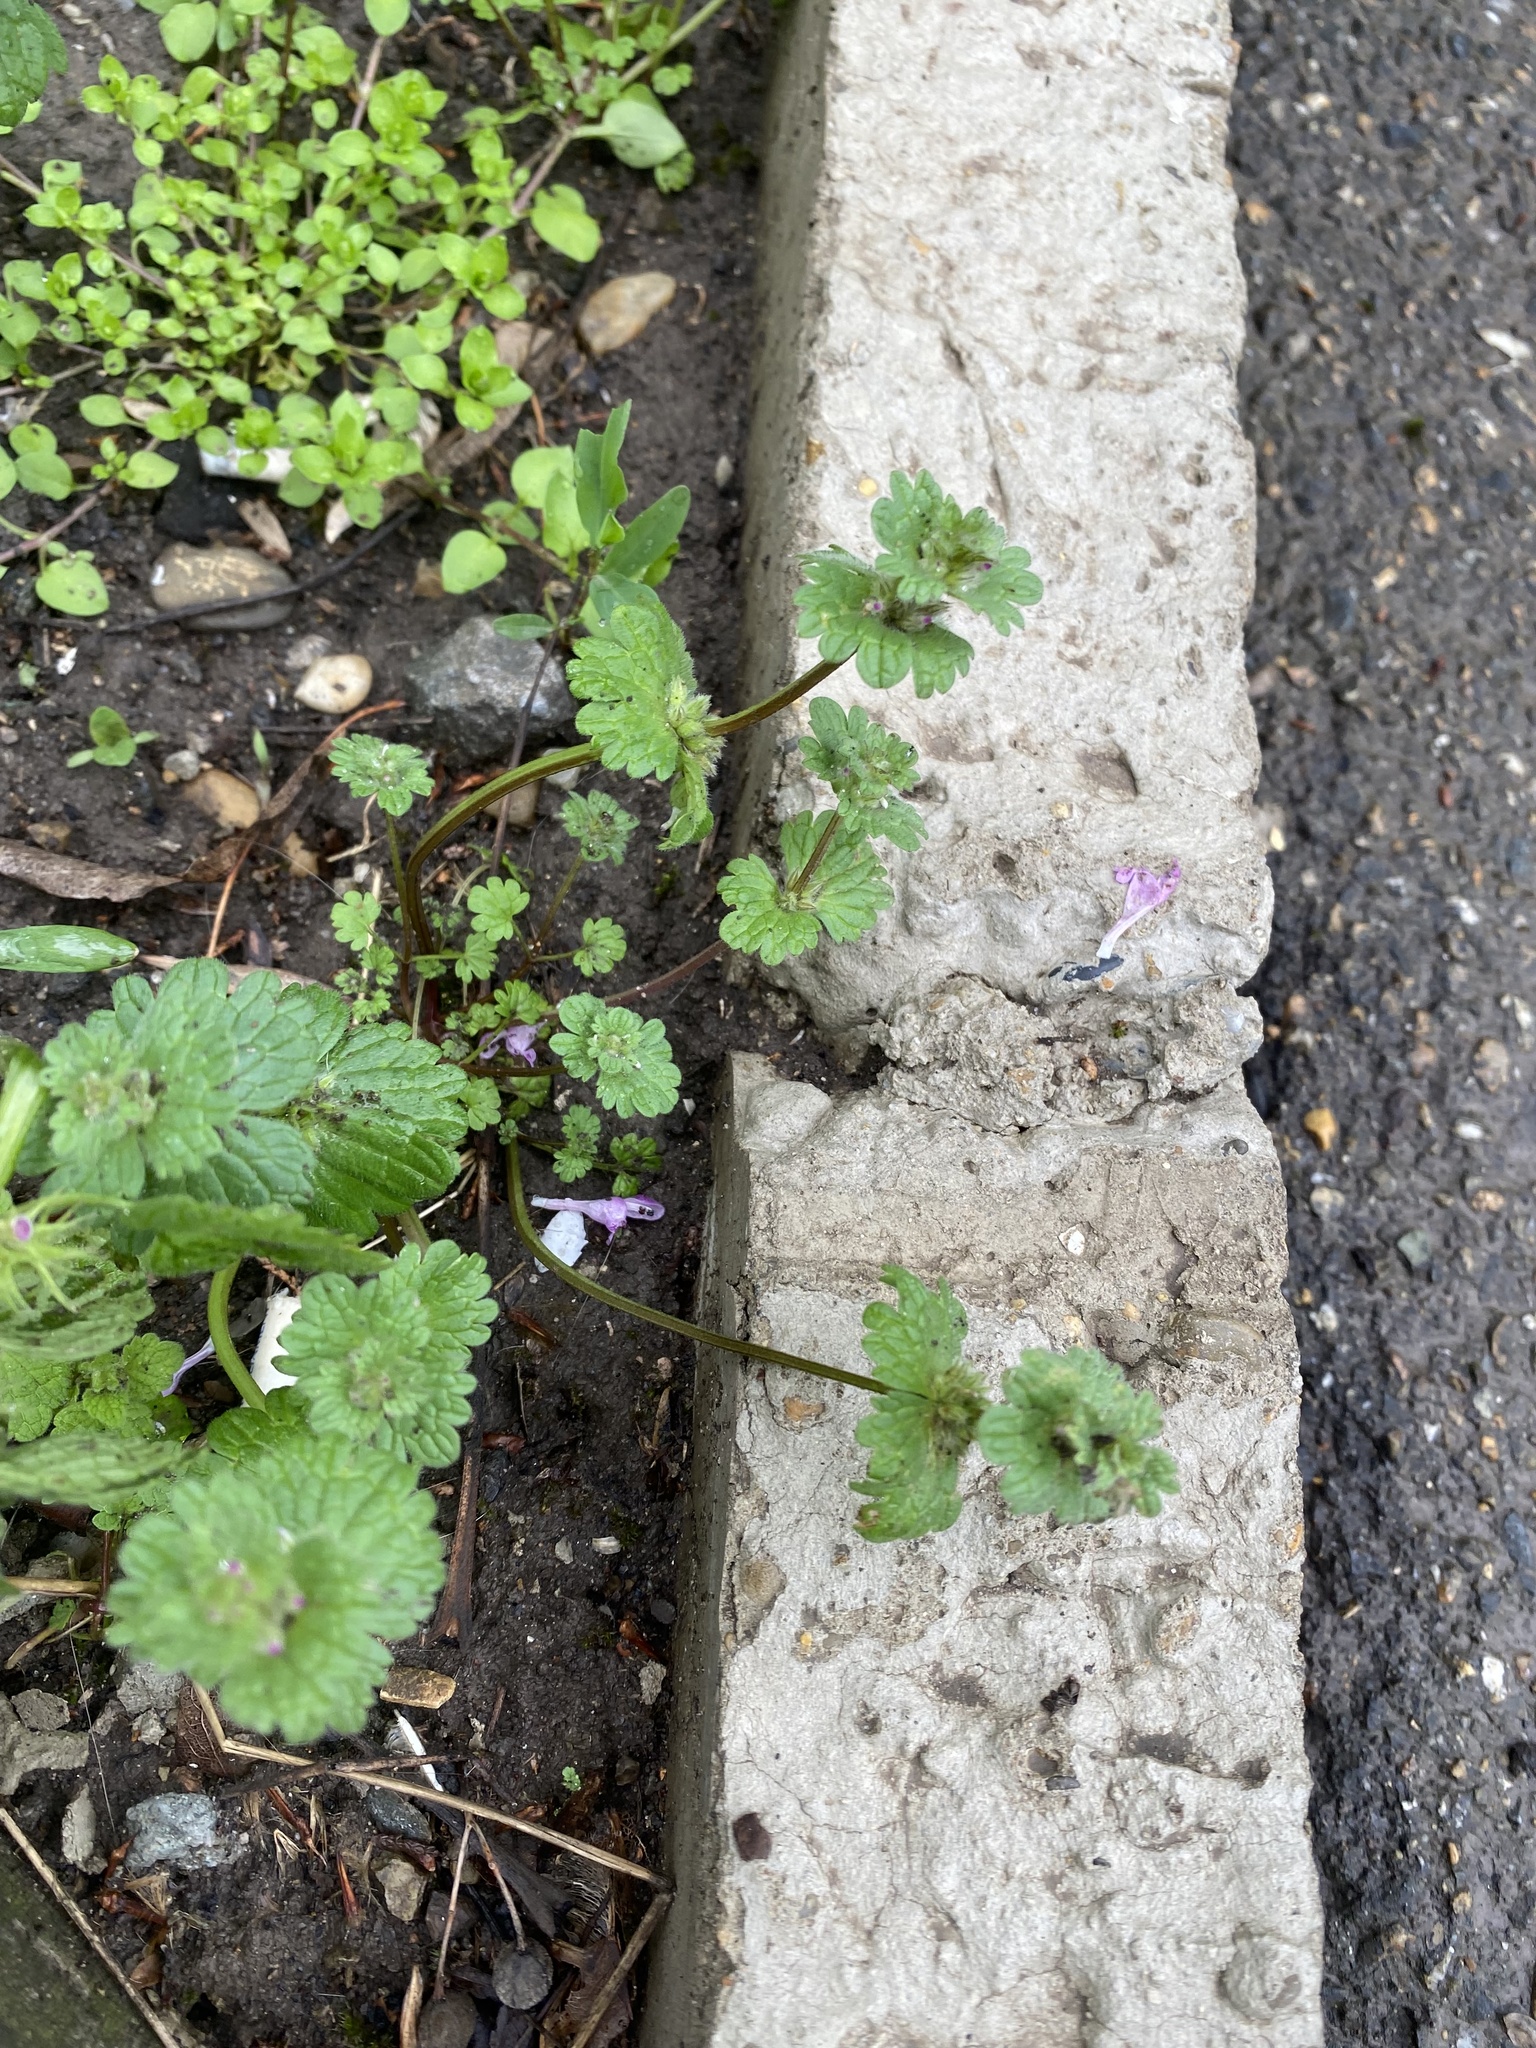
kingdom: Plantae
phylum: Tracheophyta
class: Magnoliopsida
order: Lamiales
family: Lamiaceae
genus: Lamium
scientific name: Lamium amplexicaule
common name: Henbit dead-nettle
